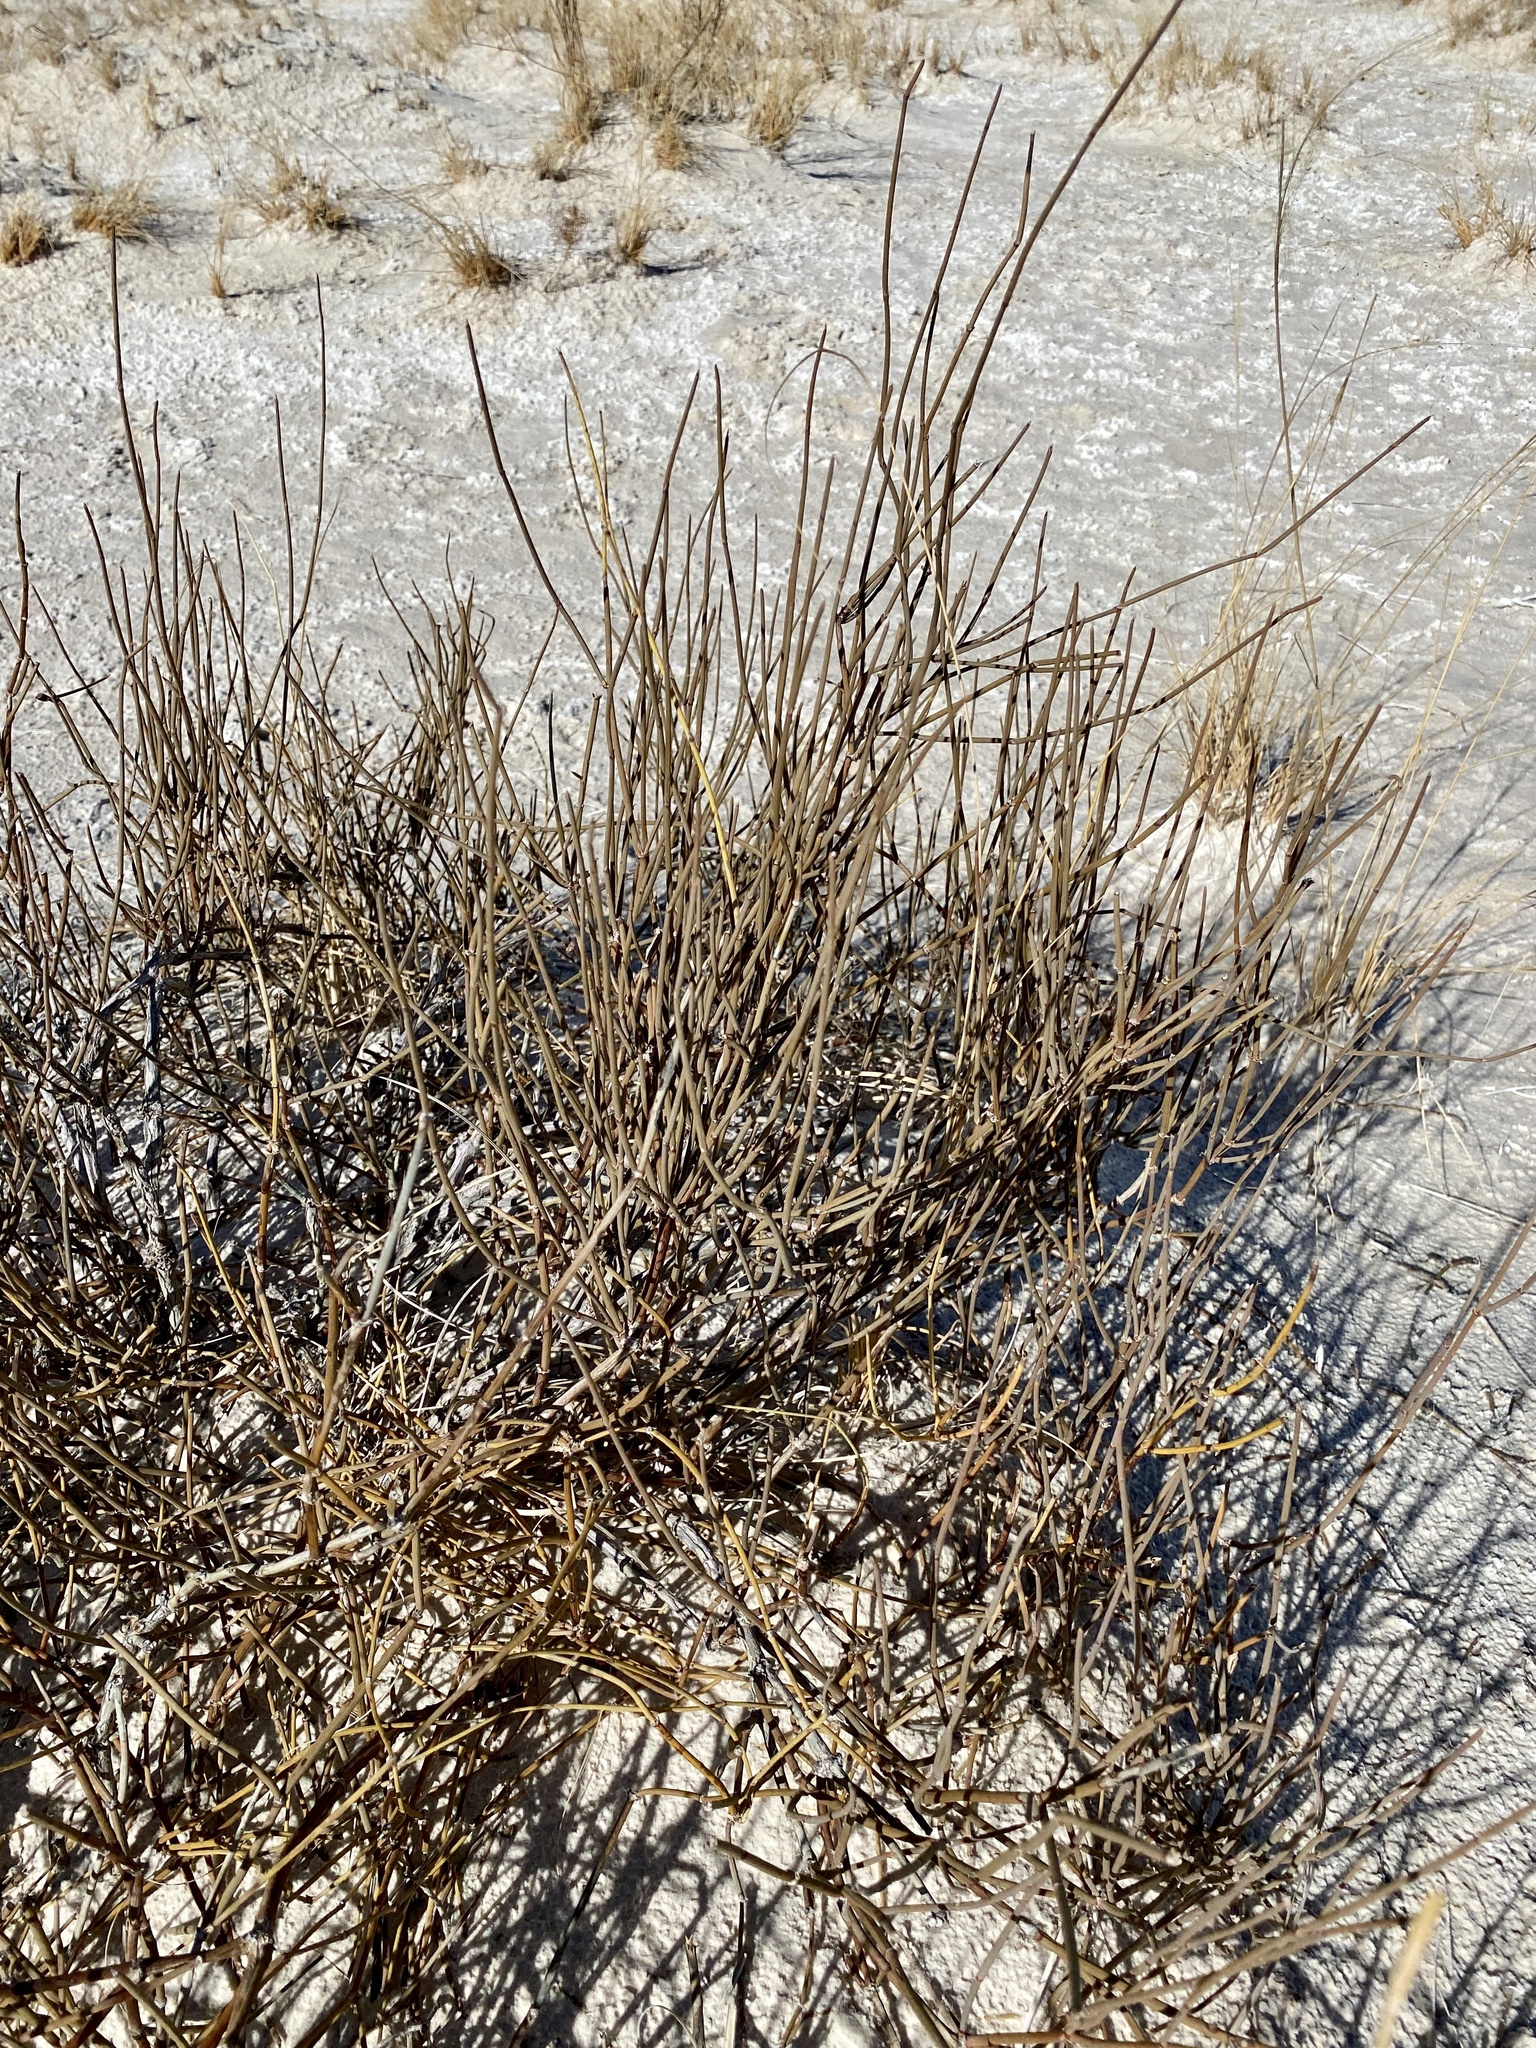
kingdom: Plantae
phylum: Tracheophyta
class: Gnetopsida
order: Ephedrales
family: Ephedraceae
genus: Ephedra
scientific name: Ephedra trifurca
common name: Mexican-tea
